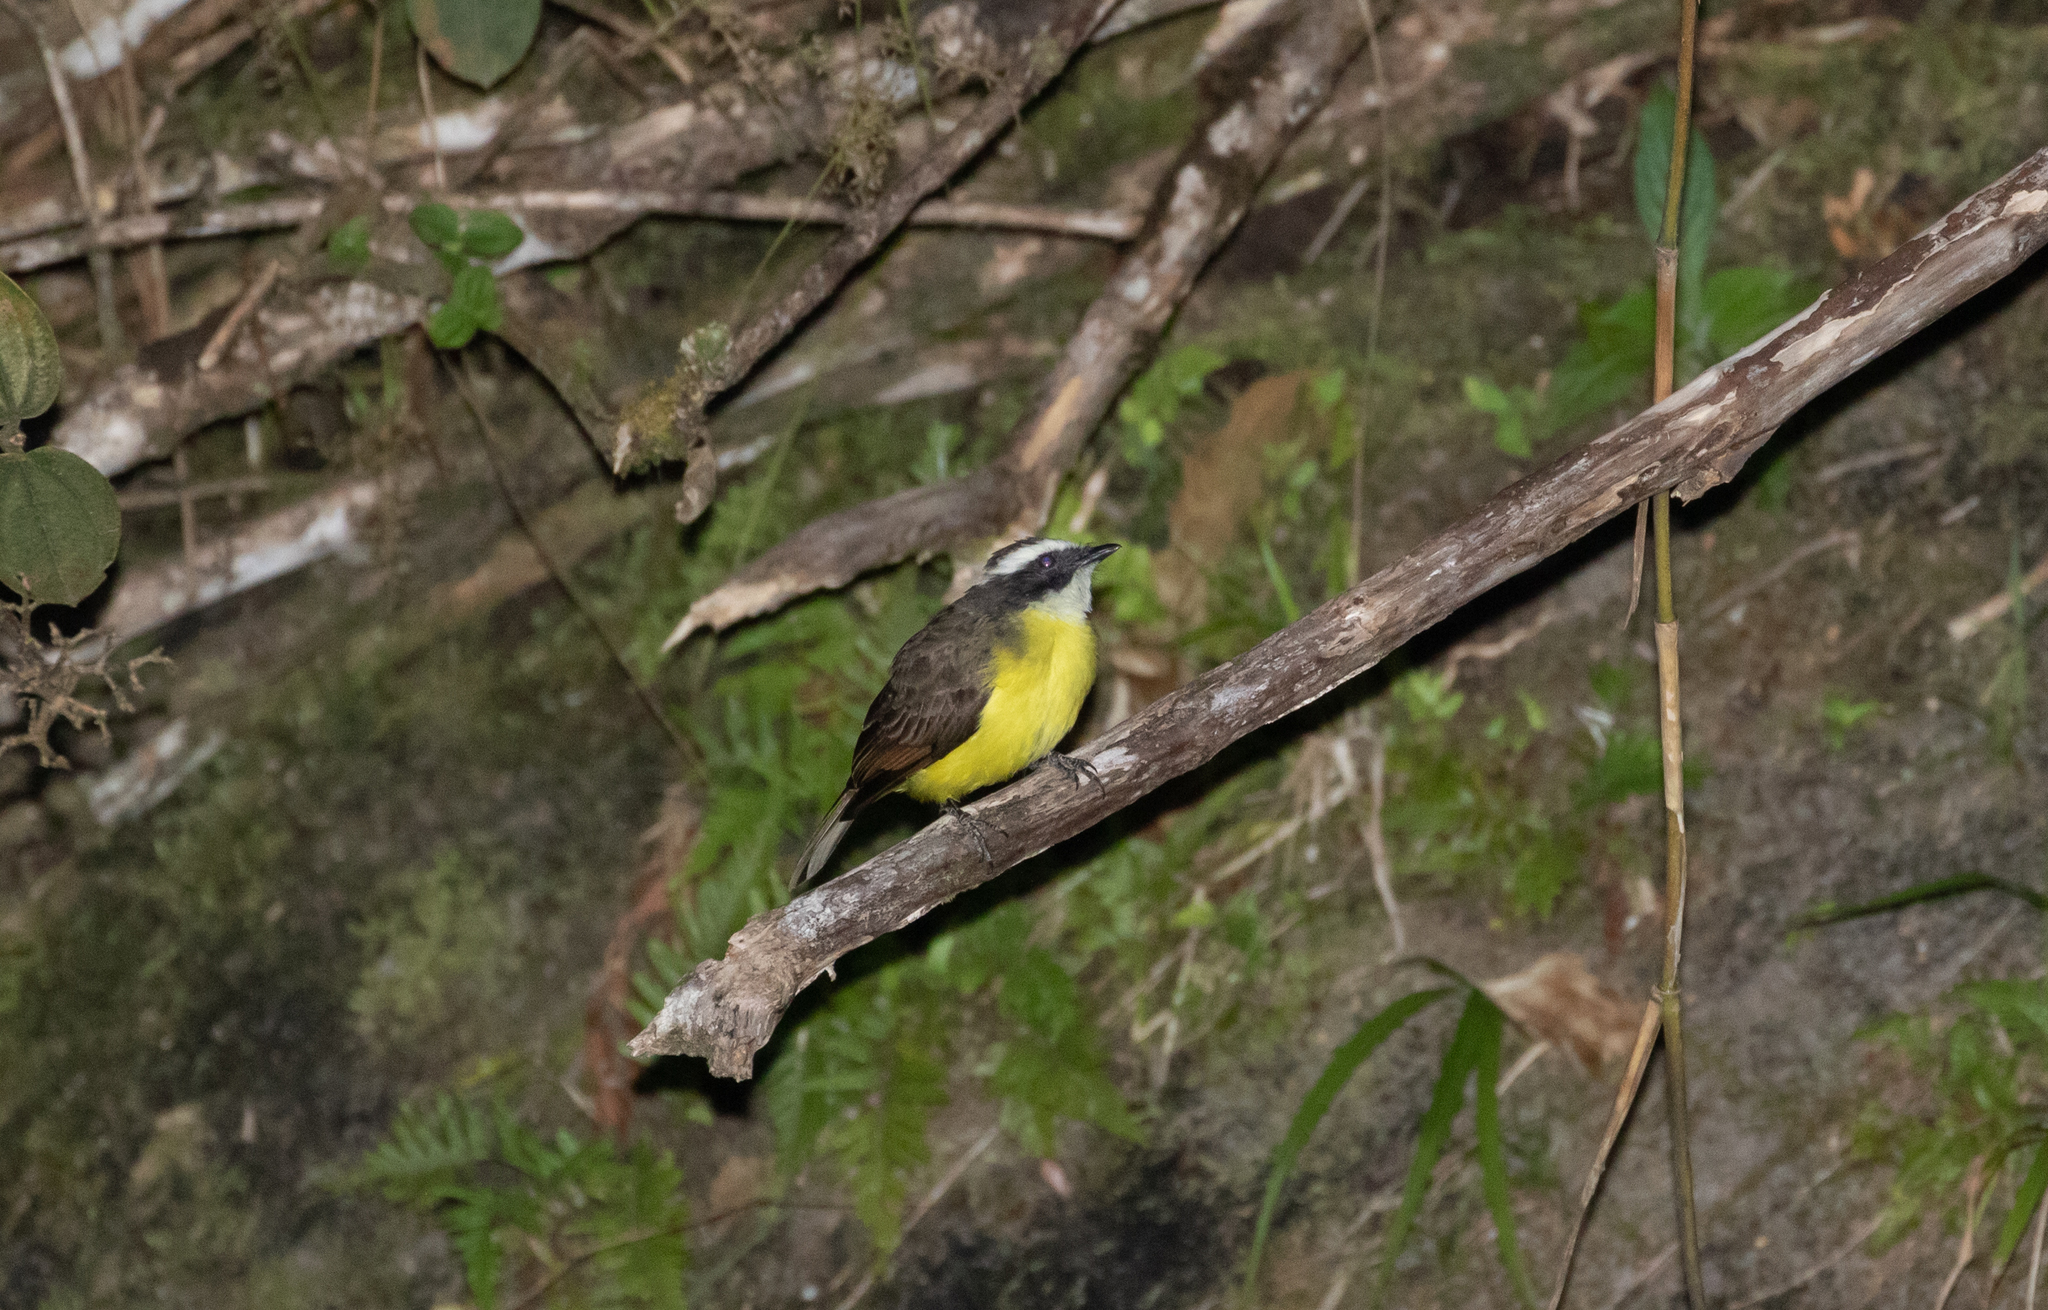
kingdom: Animalia
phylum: Chordata
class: Aves
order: Passeriformes
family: Tyrannidae
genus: Myiozetetes
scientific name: Myiozetetes cayanensis
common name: Rusty-margined flycatcher
